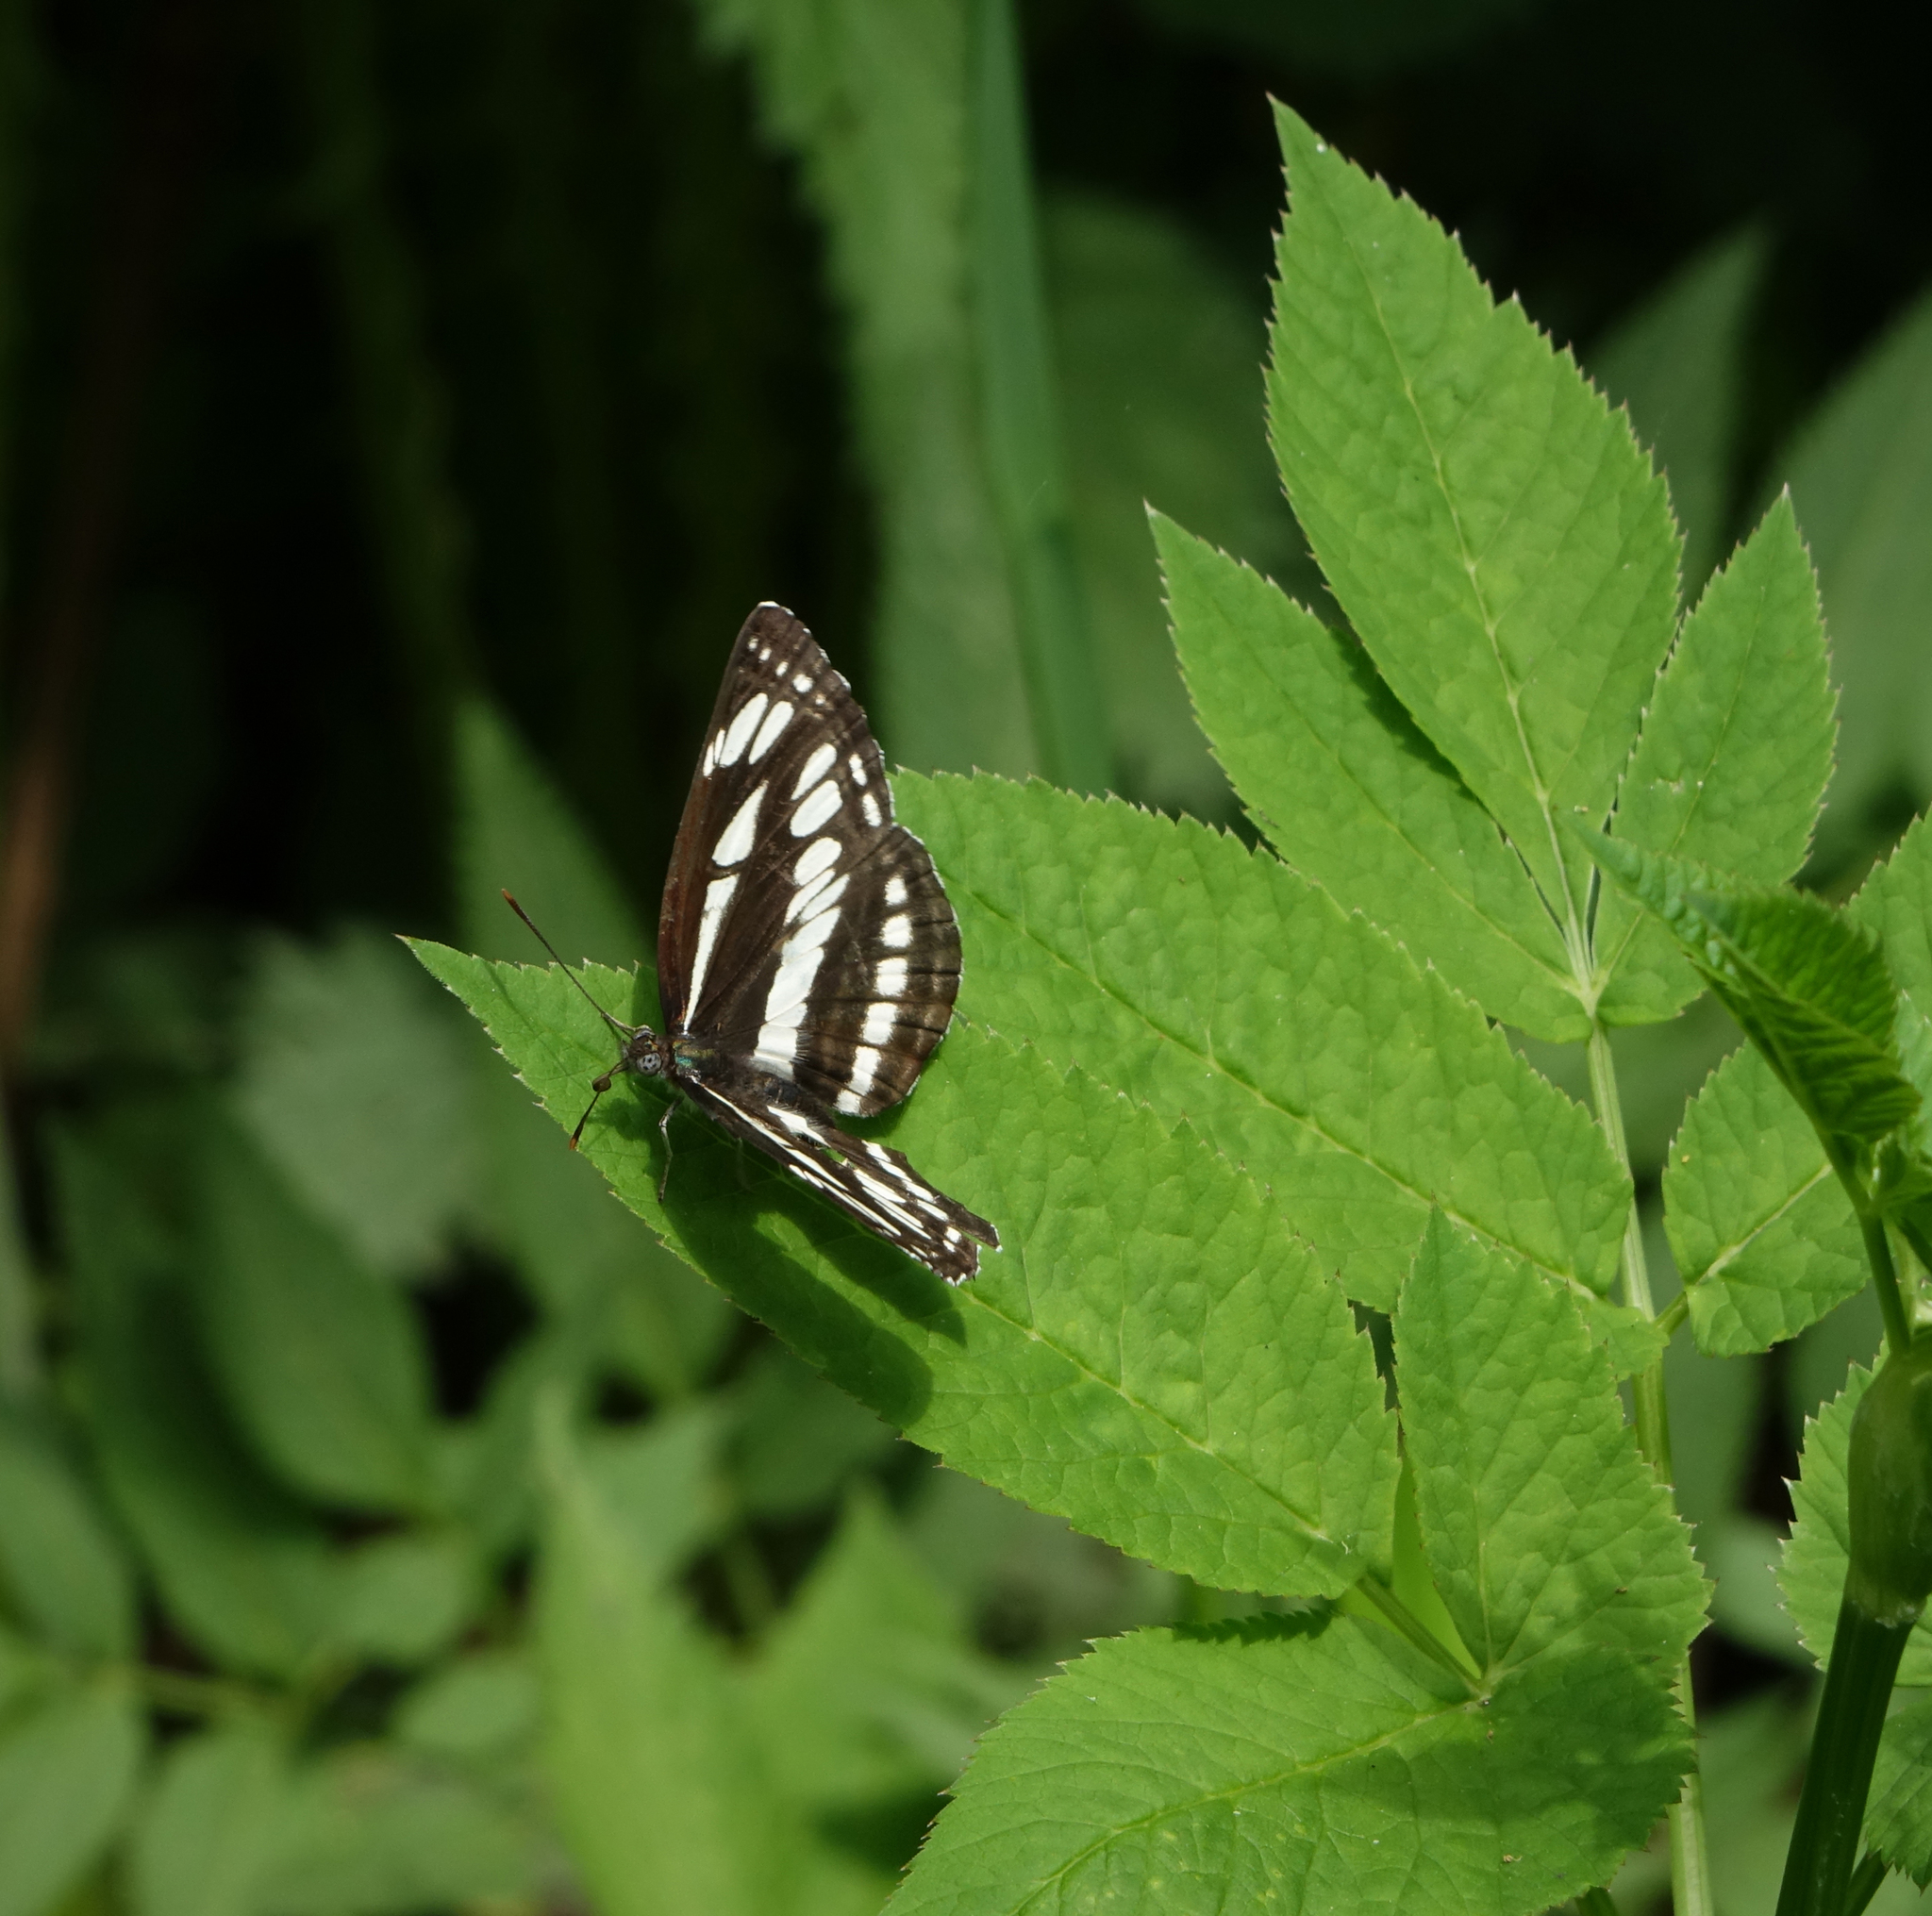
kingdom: Animalia
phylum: Arthropoda
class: Insecta
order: Lepidoptera
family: Nymphalidae
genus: Neptis
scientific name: Neptis sappho
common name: Common glider
